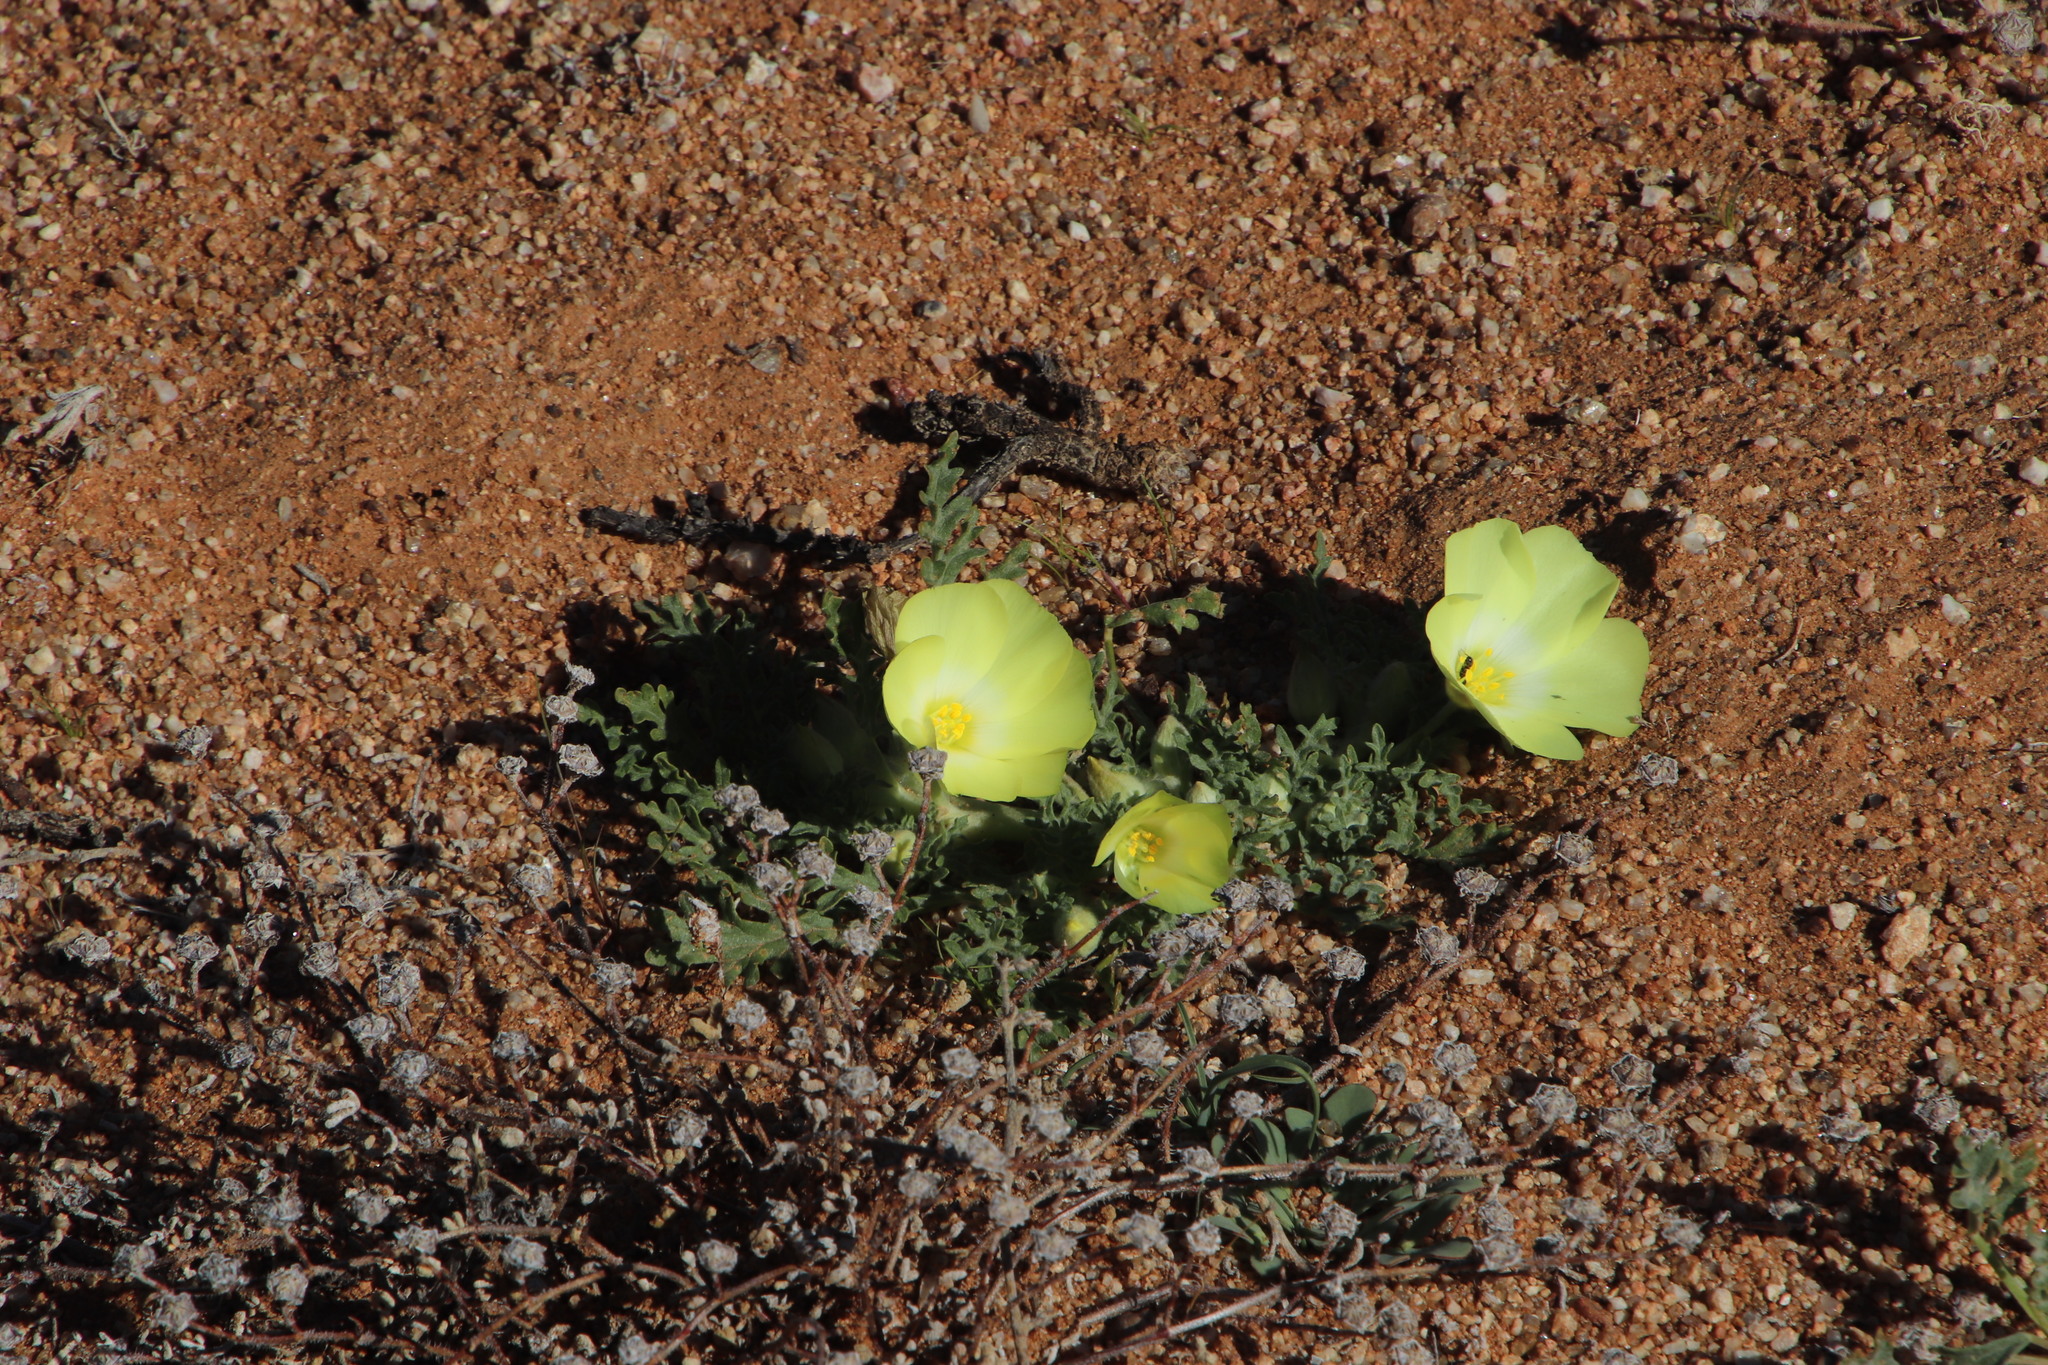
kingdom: Plantae
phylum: Tracheophyta
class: Magnoliopsida
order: Malvales
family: Neuradaceae
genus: Grielum
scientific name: Grielum humifusum
